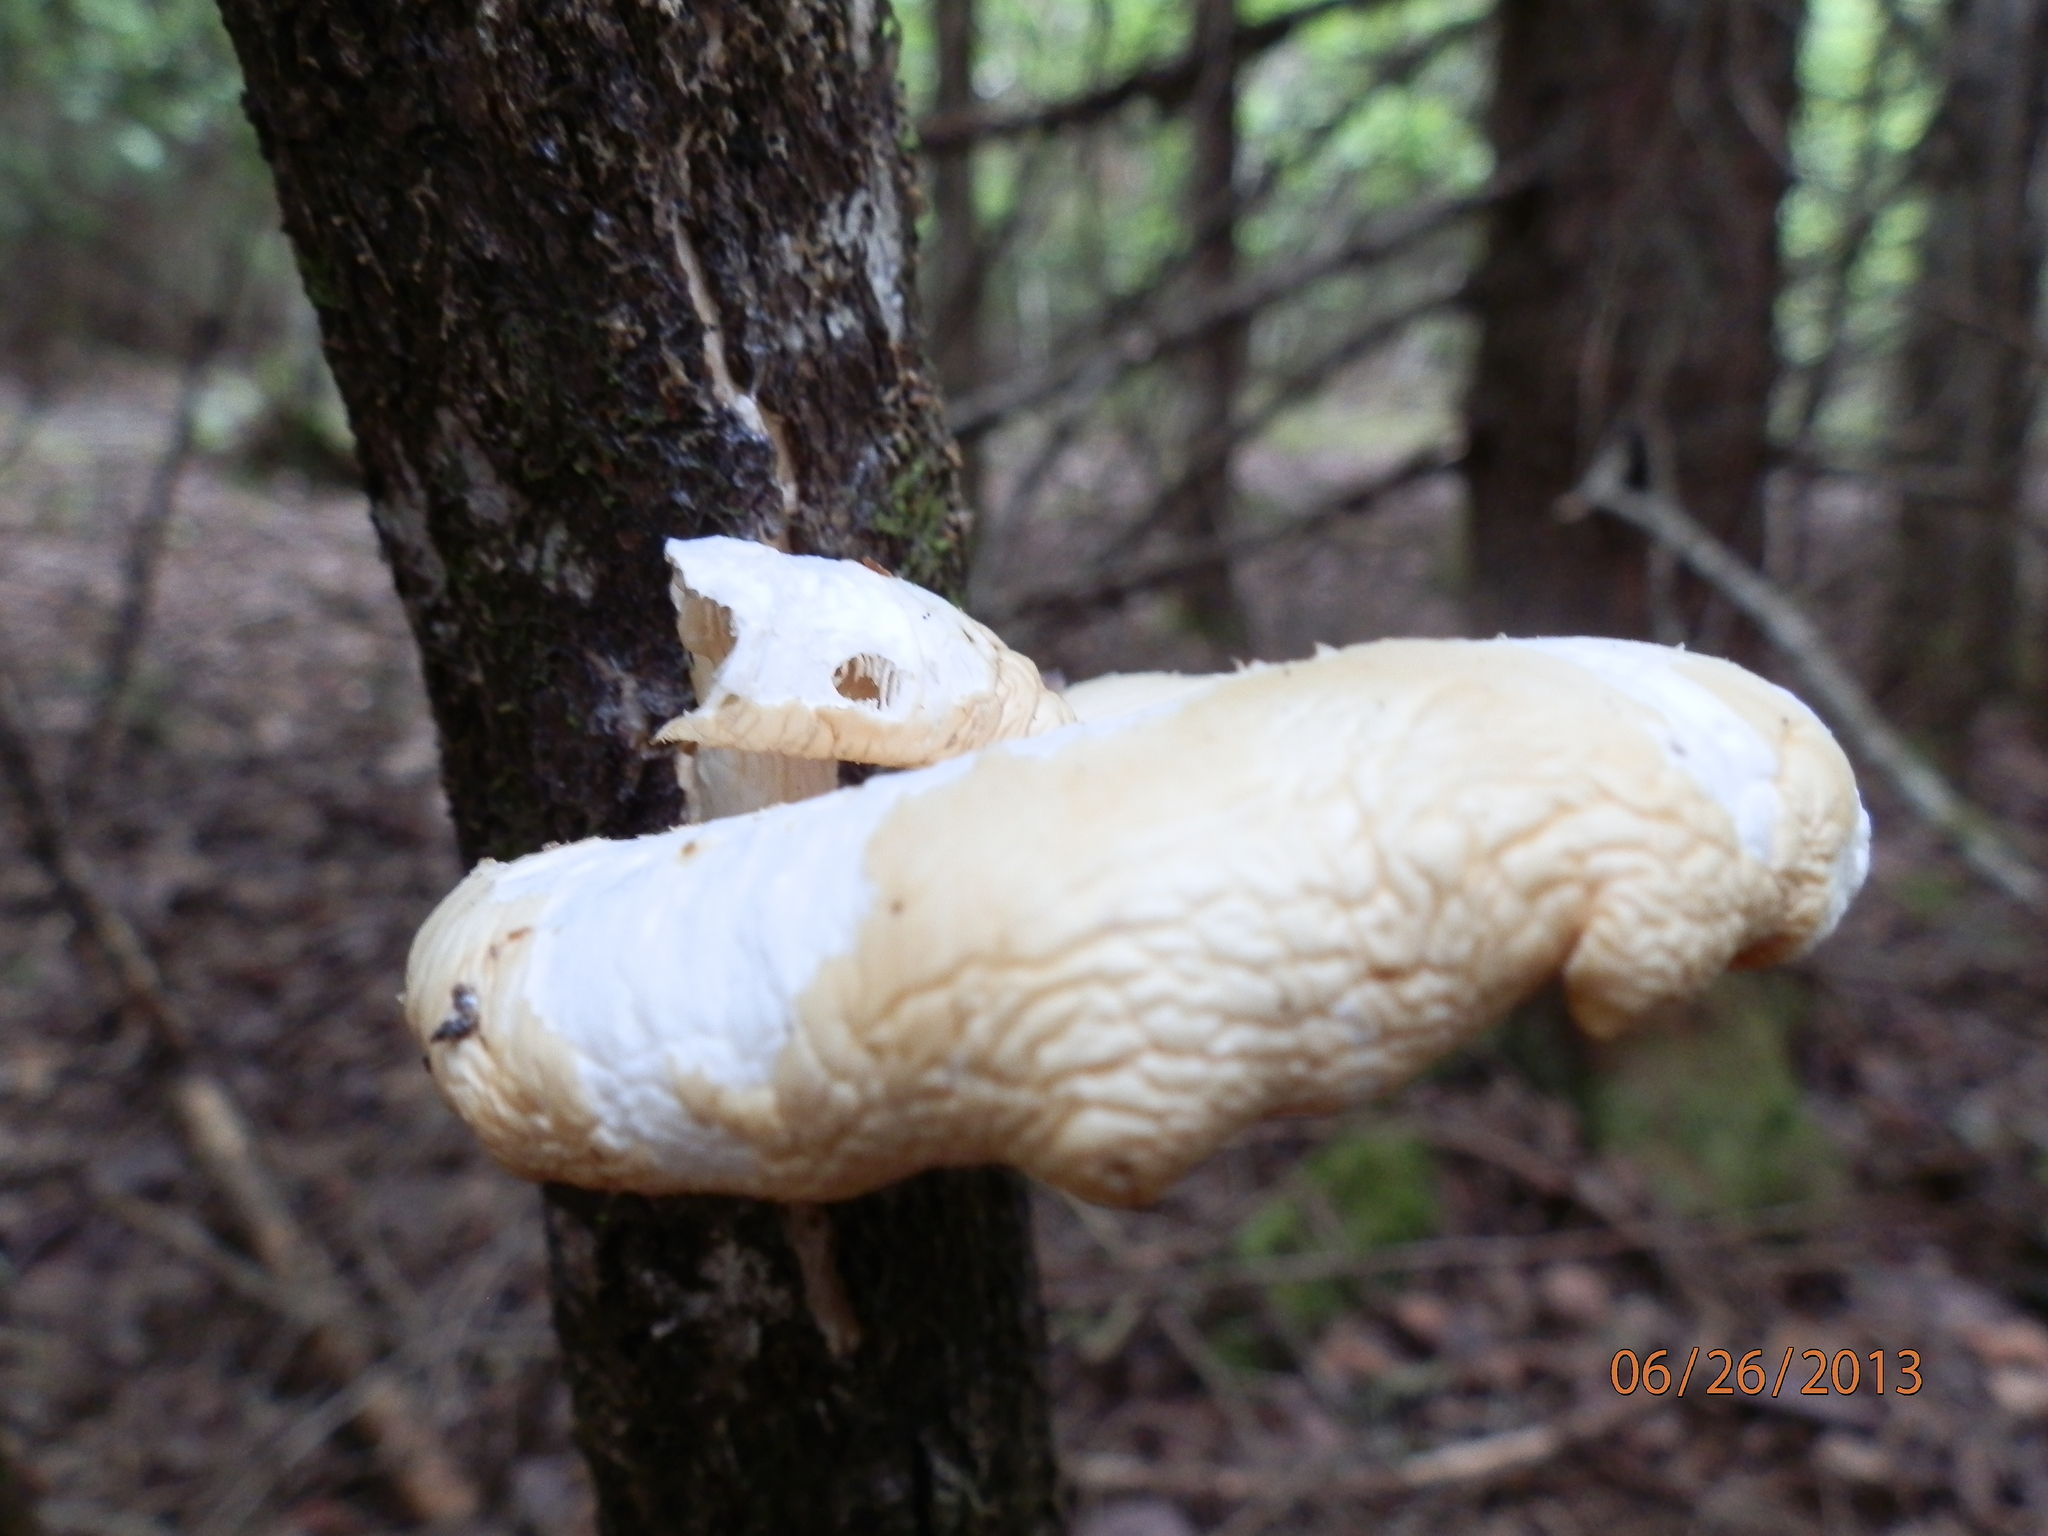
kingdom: Fungi
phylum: Basidiomycota
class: Agaricomycetes
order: Agaricales
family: Pleurotaceae
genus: Pleurotus
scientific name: Pleurotus populinus
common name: Aspen oyster mushroom
